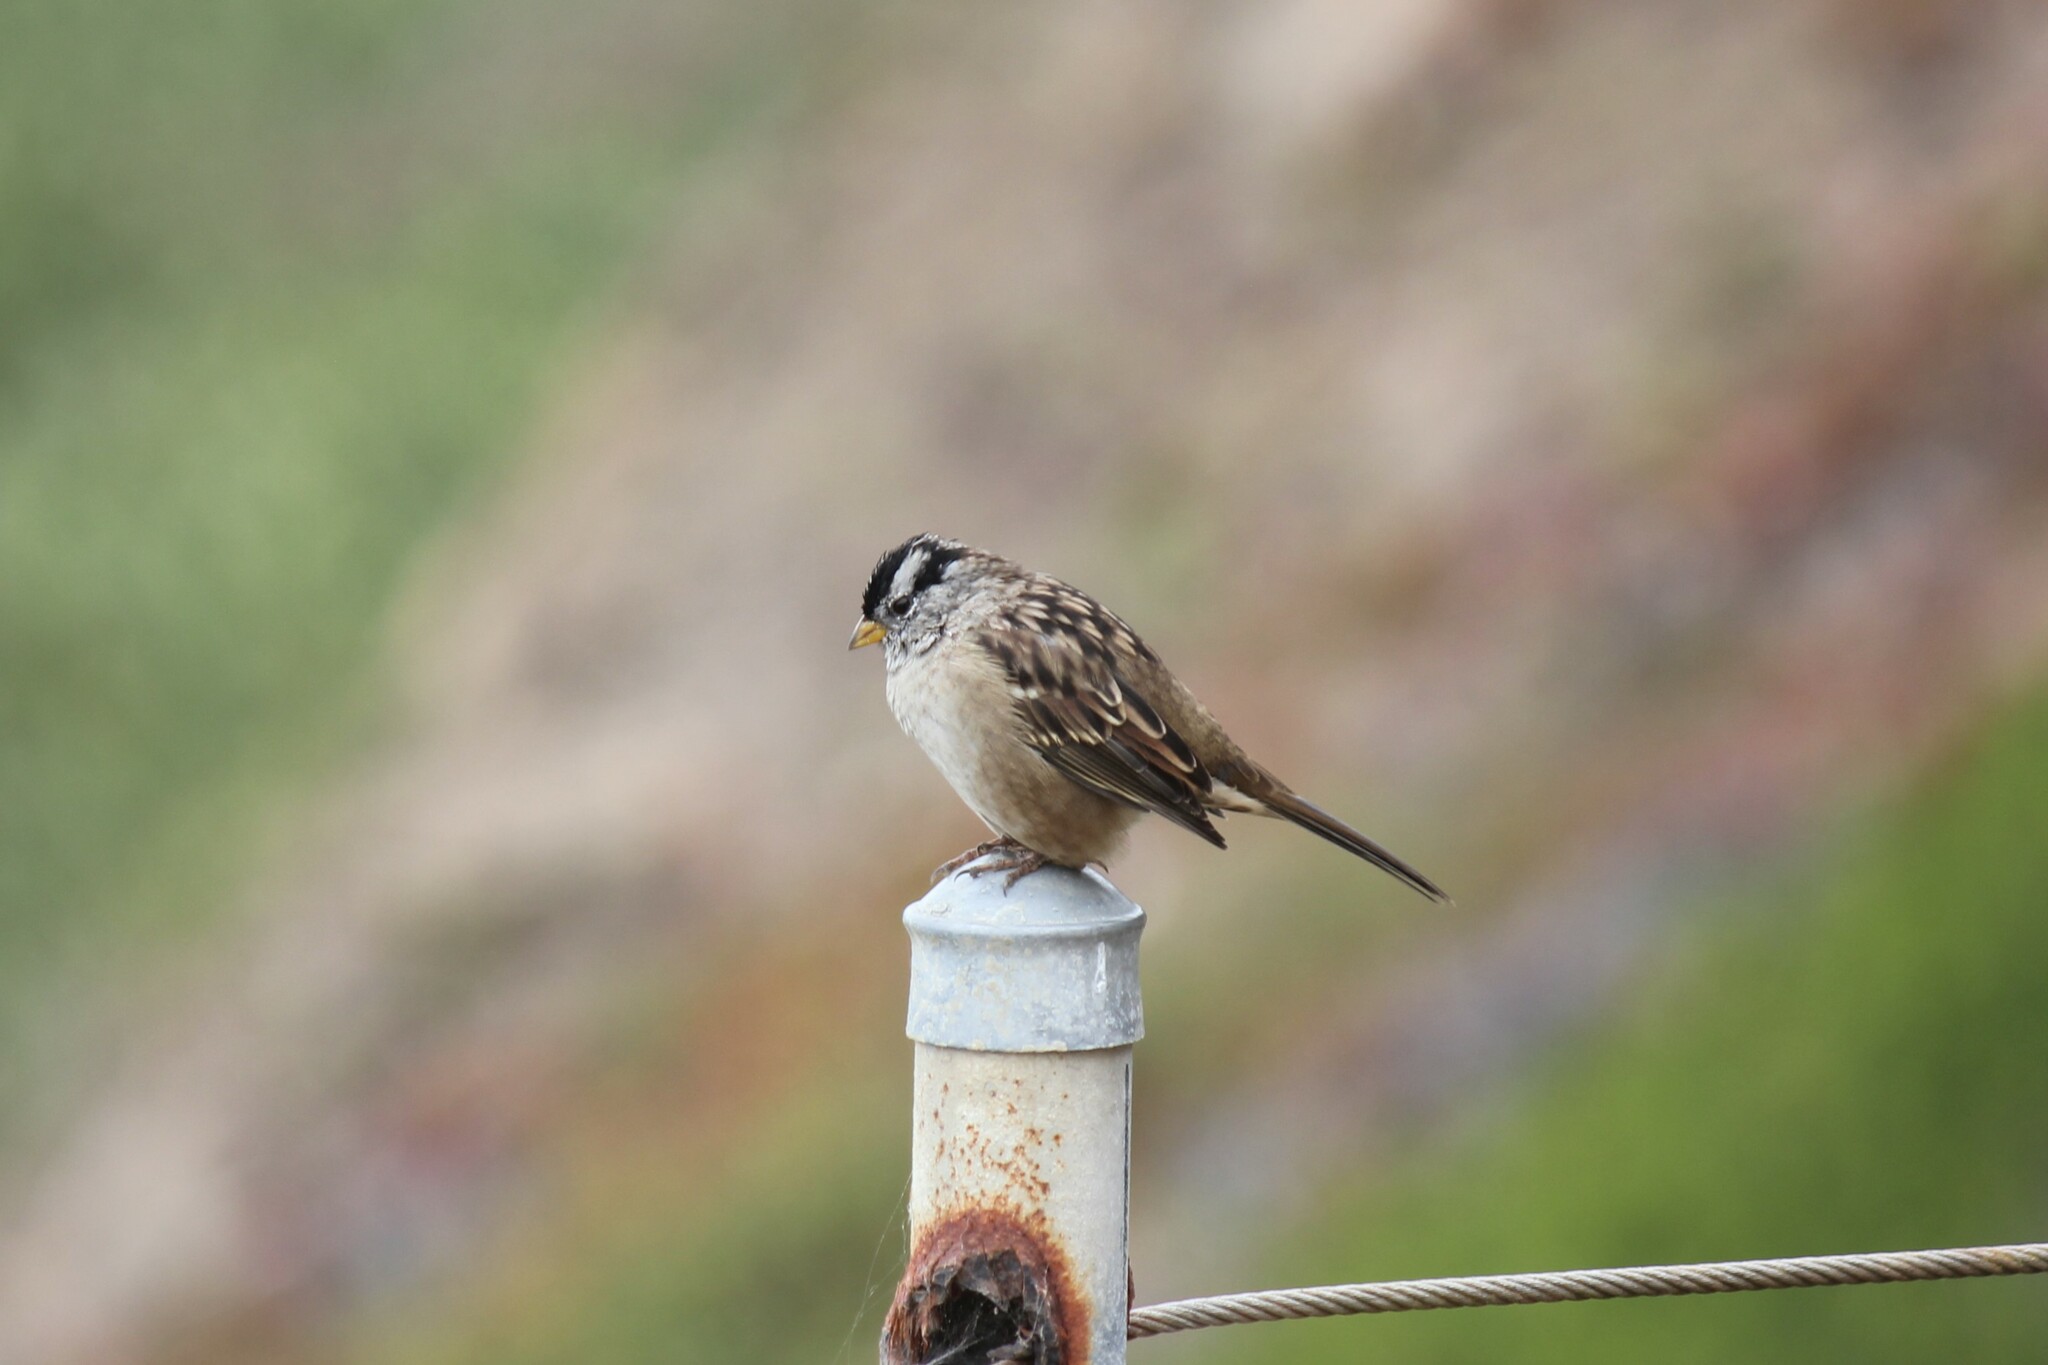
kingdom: Animalia
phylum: Chordata
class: Aves
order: Passeriformes
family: Passerellidae
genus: Zonotrichia
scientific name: Zonotrichia leucophrys
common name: White-crowned sparrow
